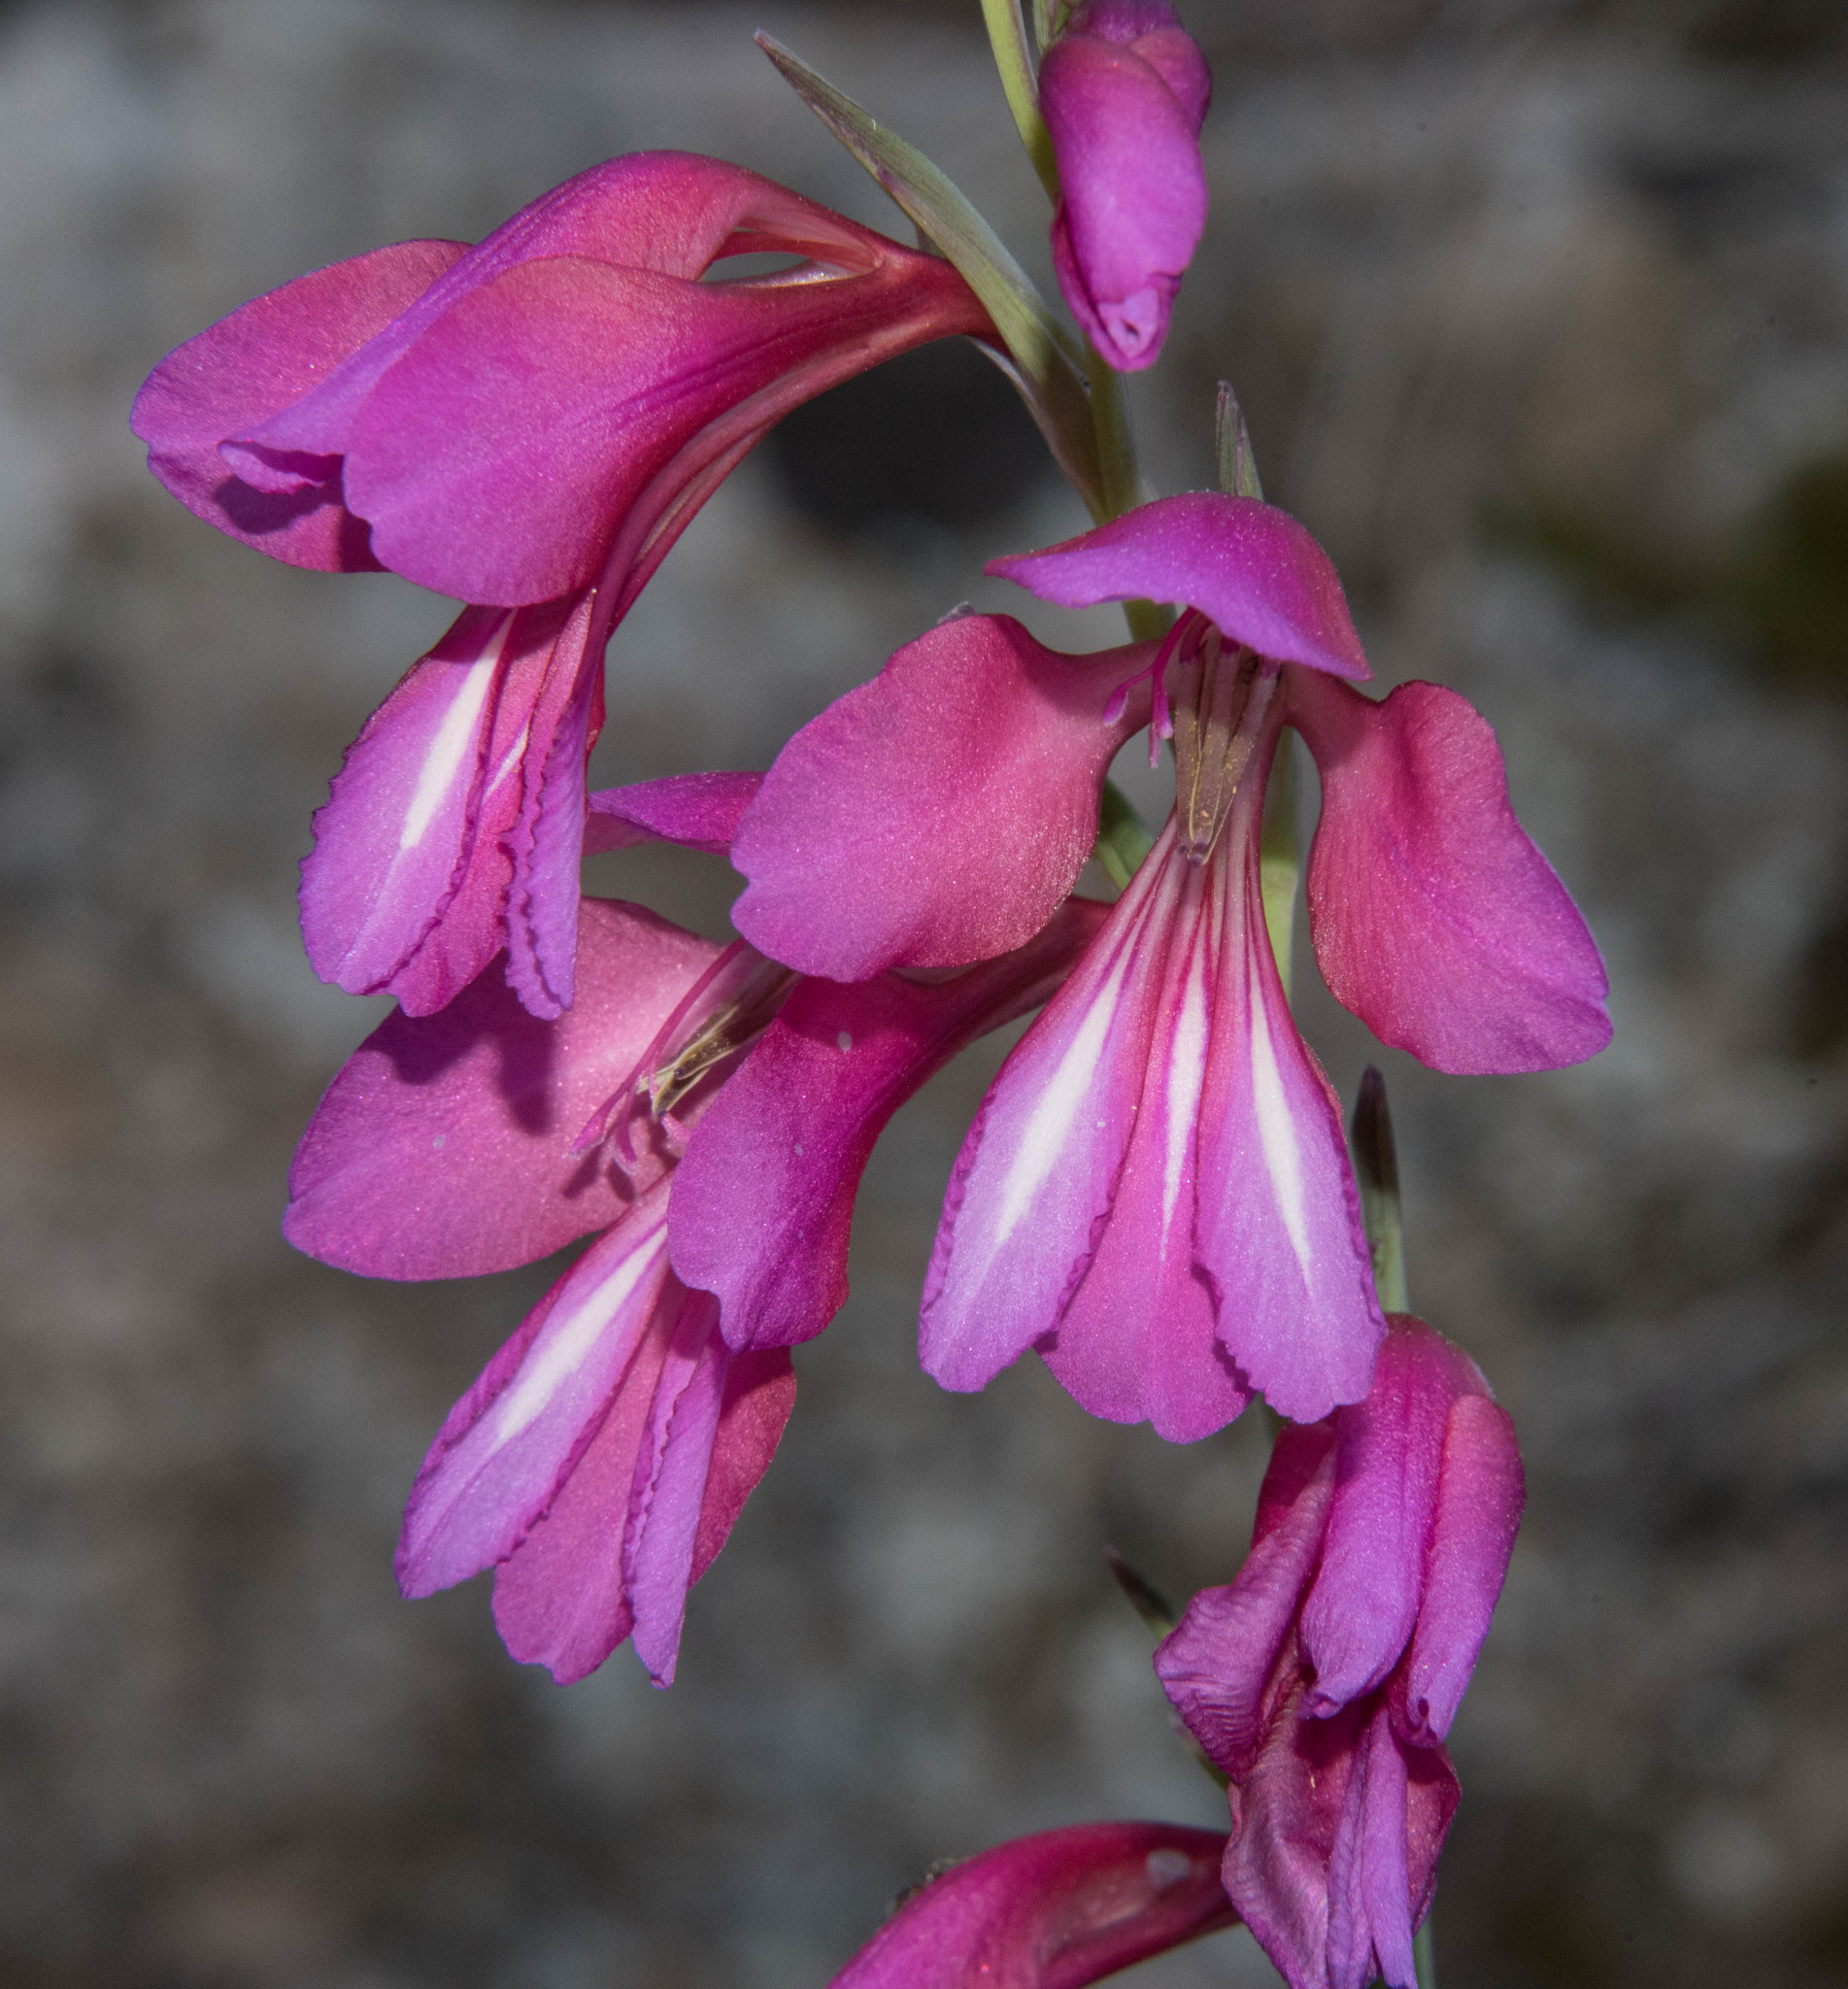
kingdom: Plantae
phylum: Tracheophyta
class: Liliopsida
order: Asparagales
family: Iridaceae
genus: Gladiolus
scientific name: Gladiolus illyricus
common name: Wild gladiolus
